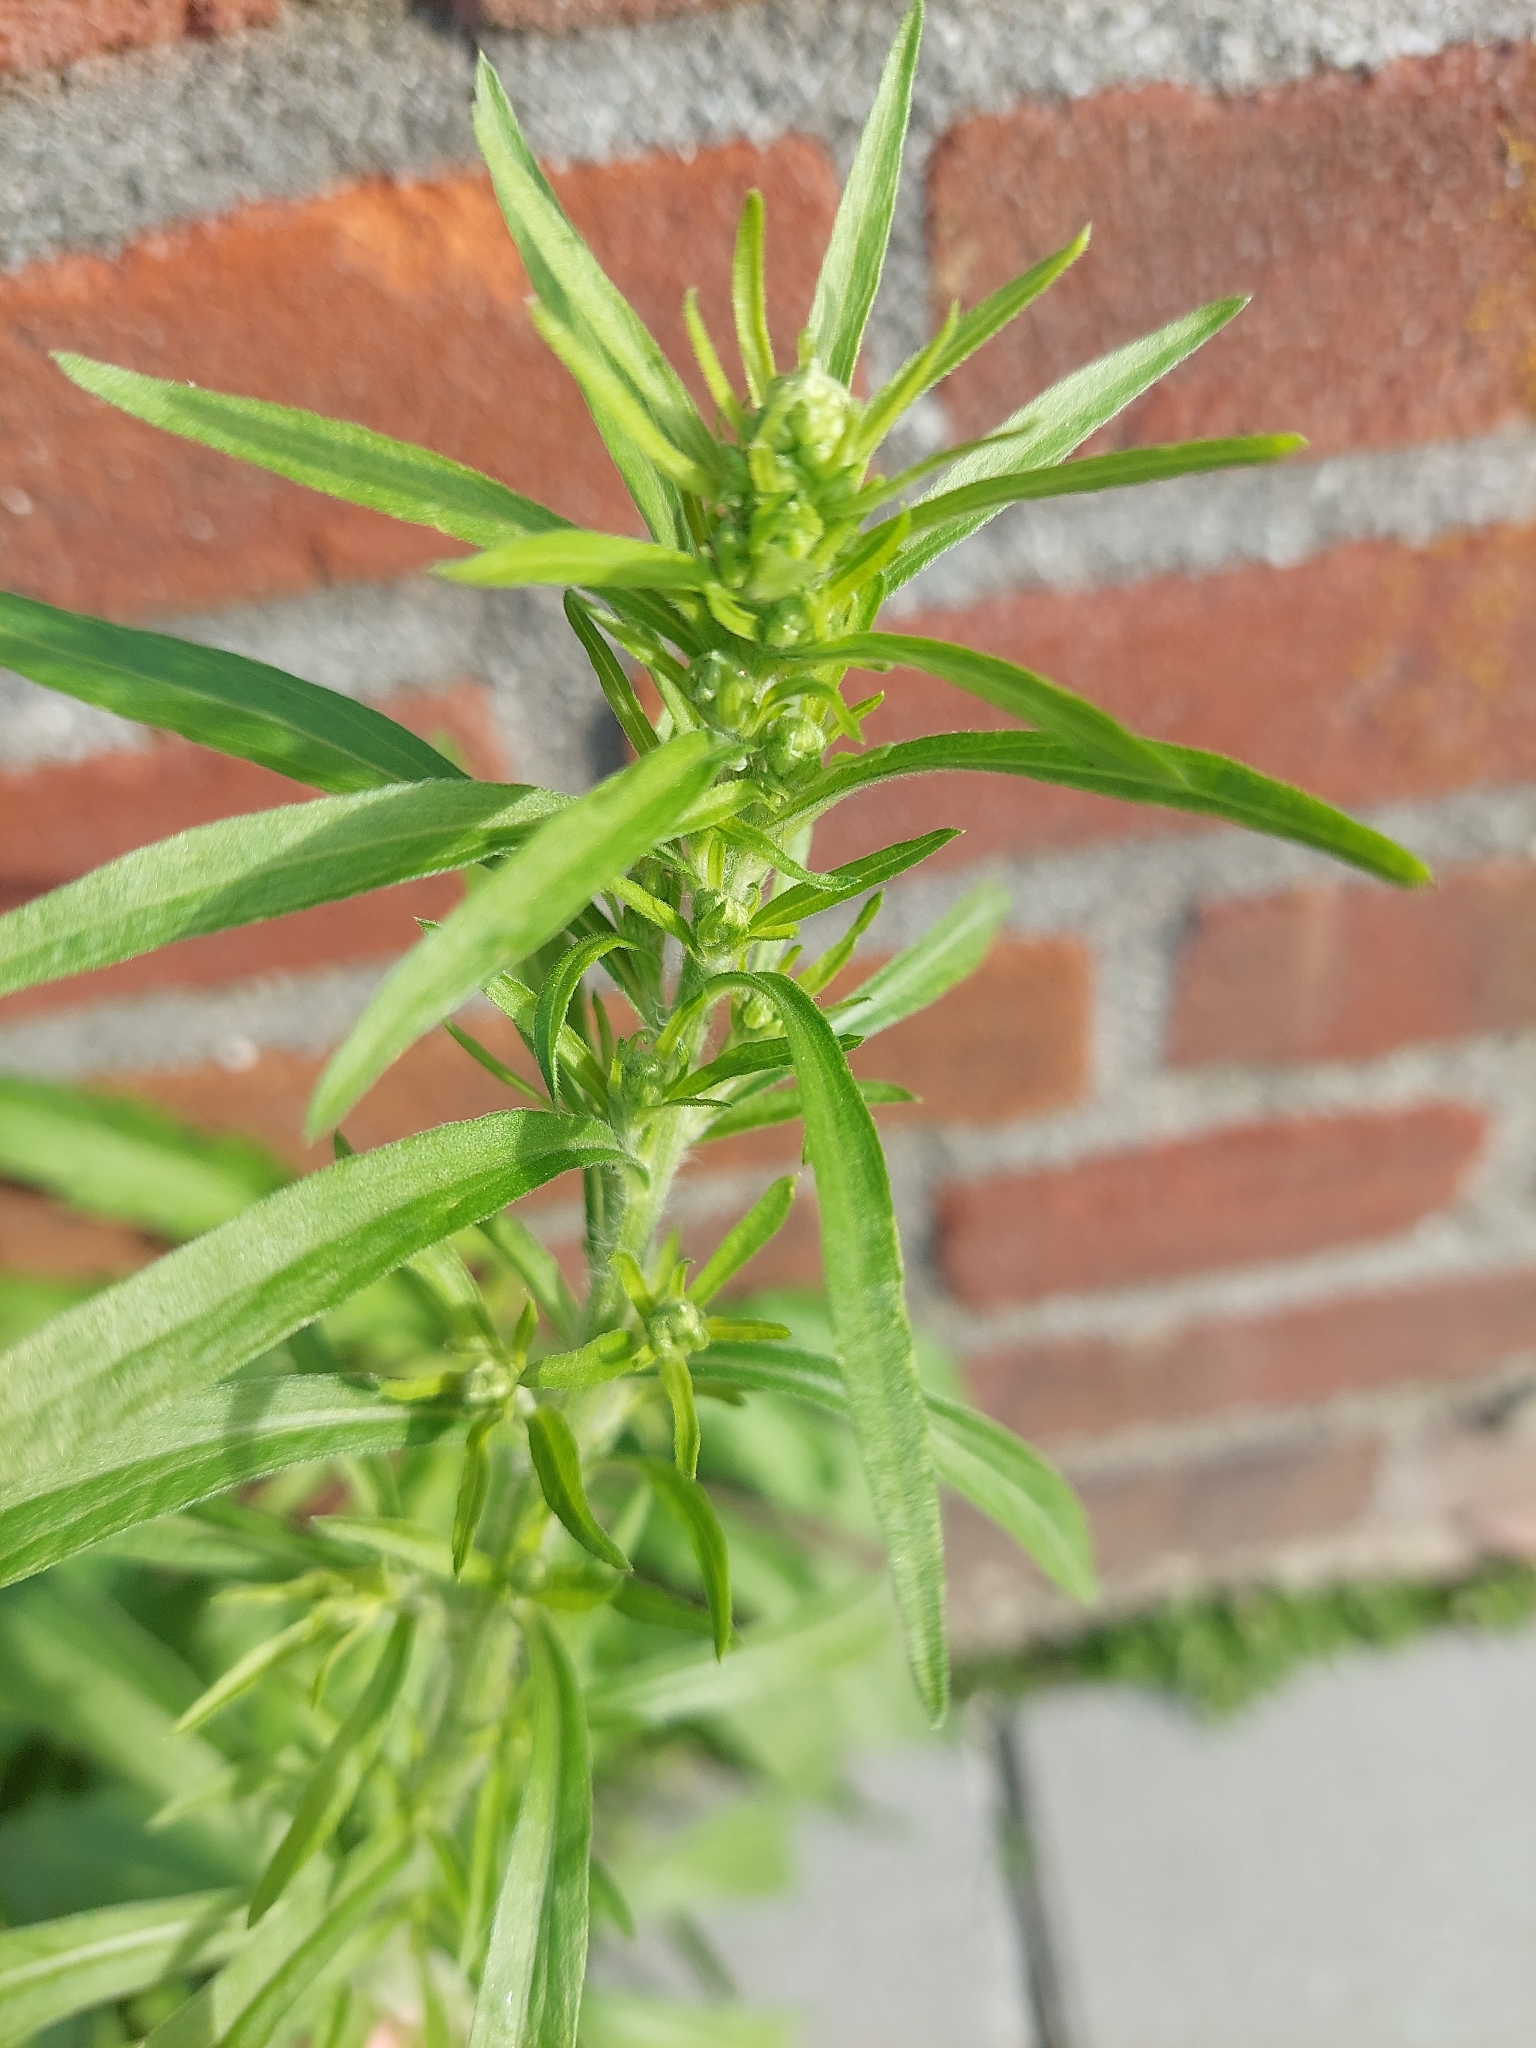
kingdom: Plantae
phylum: Tracheophyta
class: Magnoliopsida
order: Caryophyllales
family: Amaranthaceae
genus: Bassia
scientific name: Bassia scoparia
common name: Belvedere
